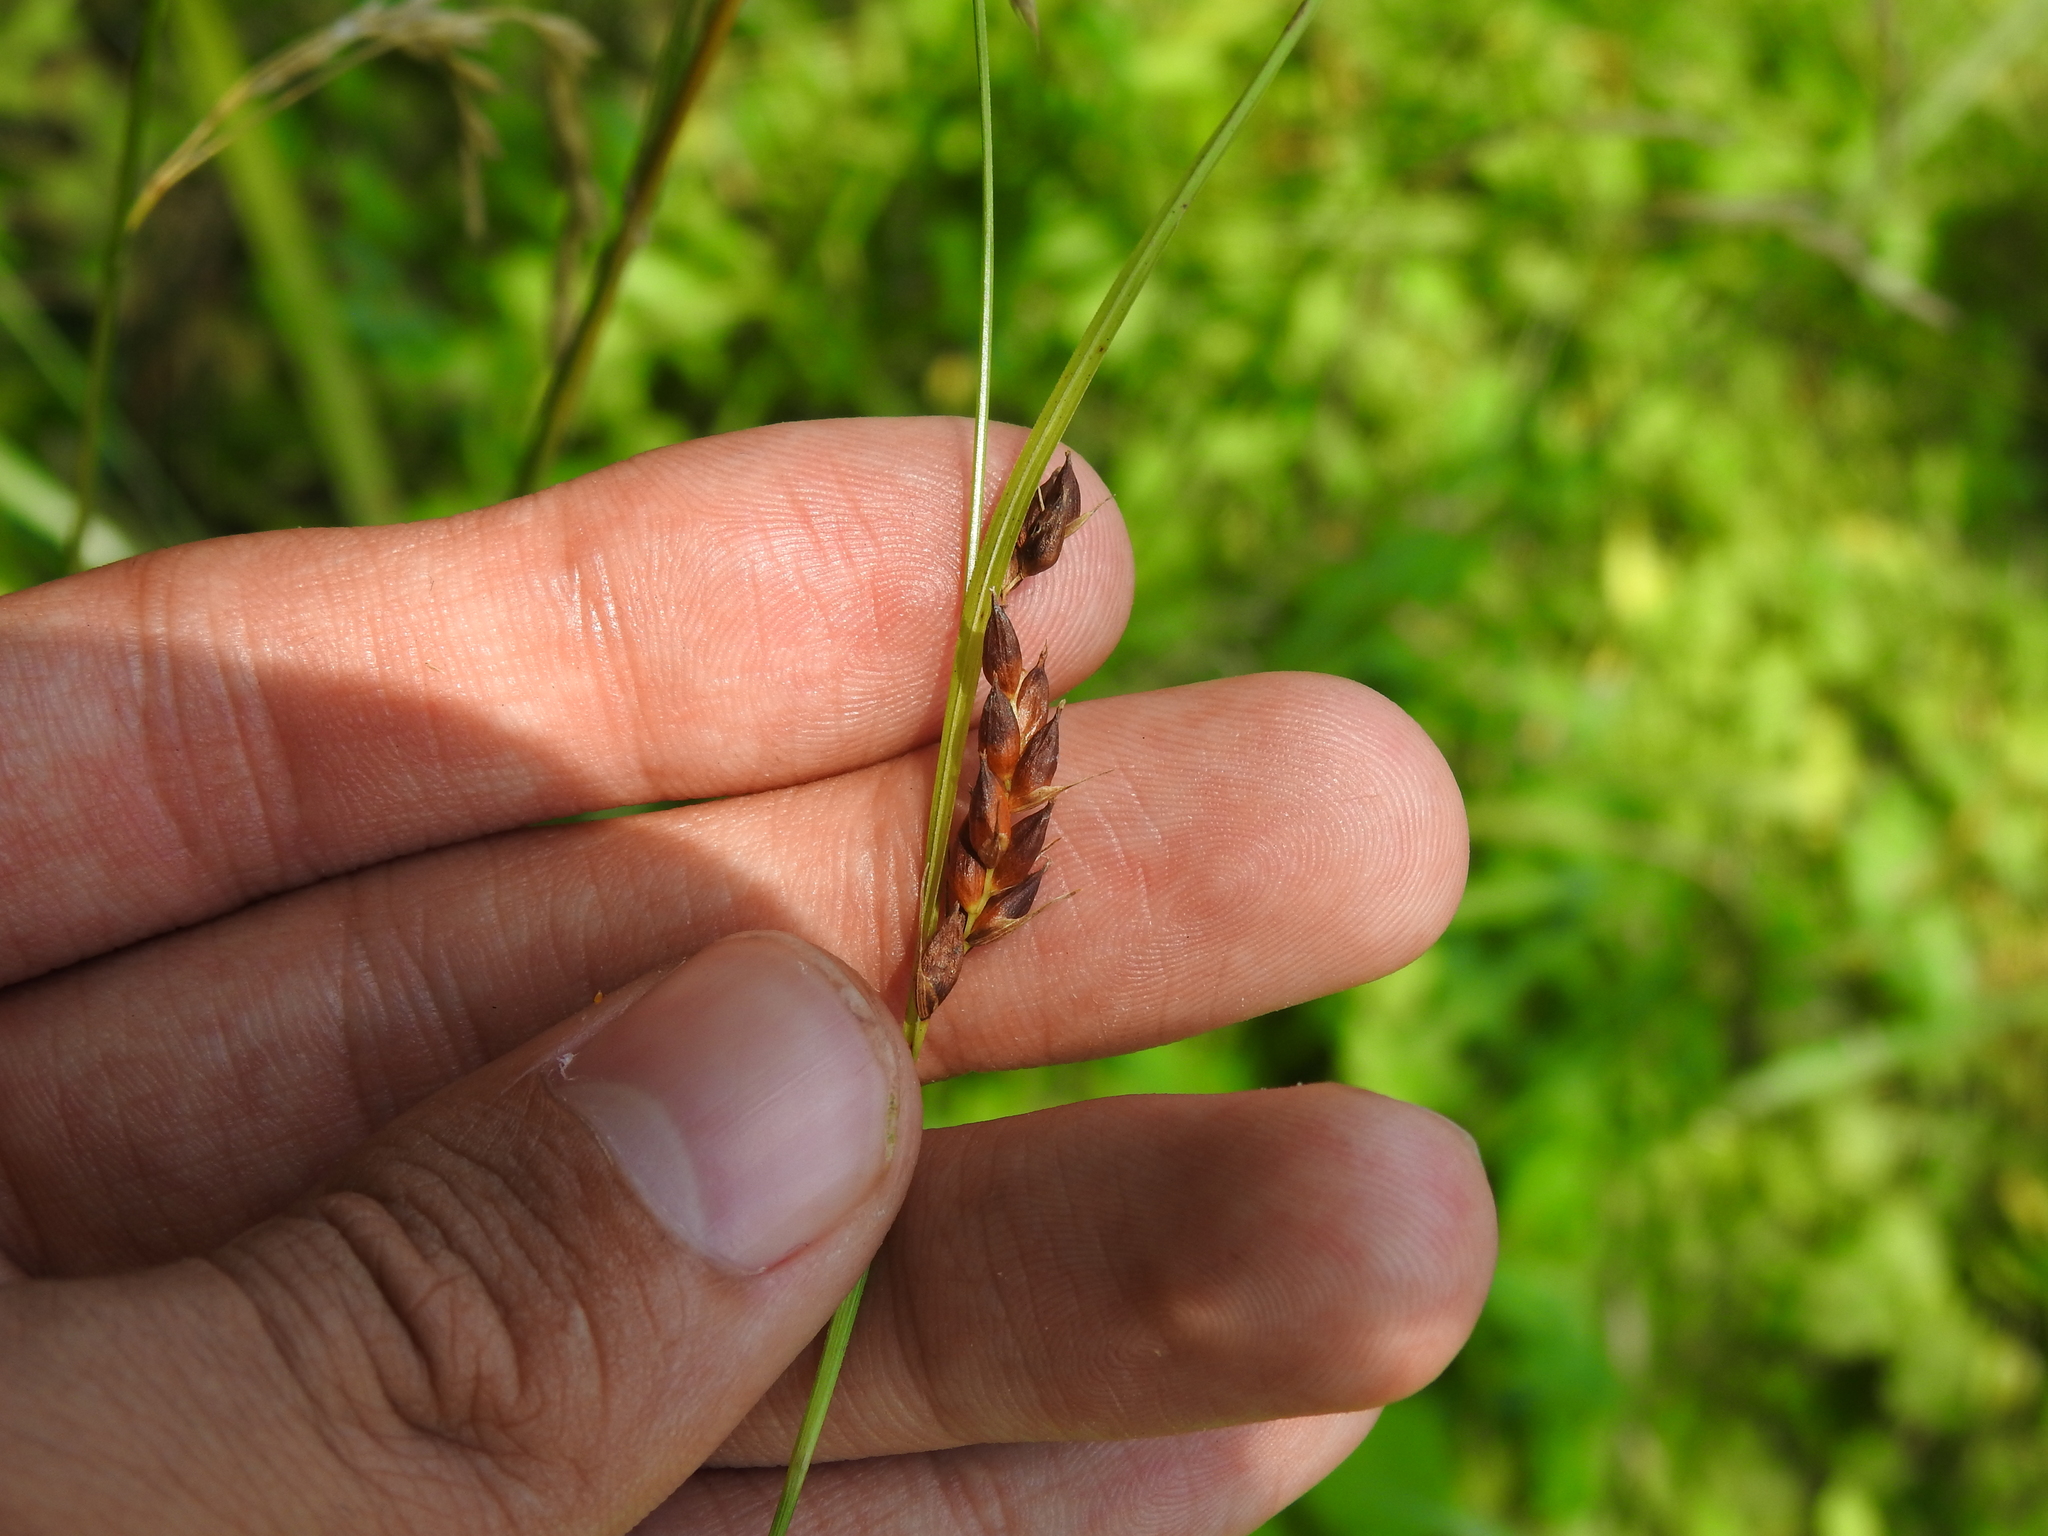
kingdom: Plantae
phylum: Tracheophyta
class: Liliopsida
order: Poales
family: Cyperaceae
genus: Carex
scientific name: Carex davisii
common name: Davis' sedge
